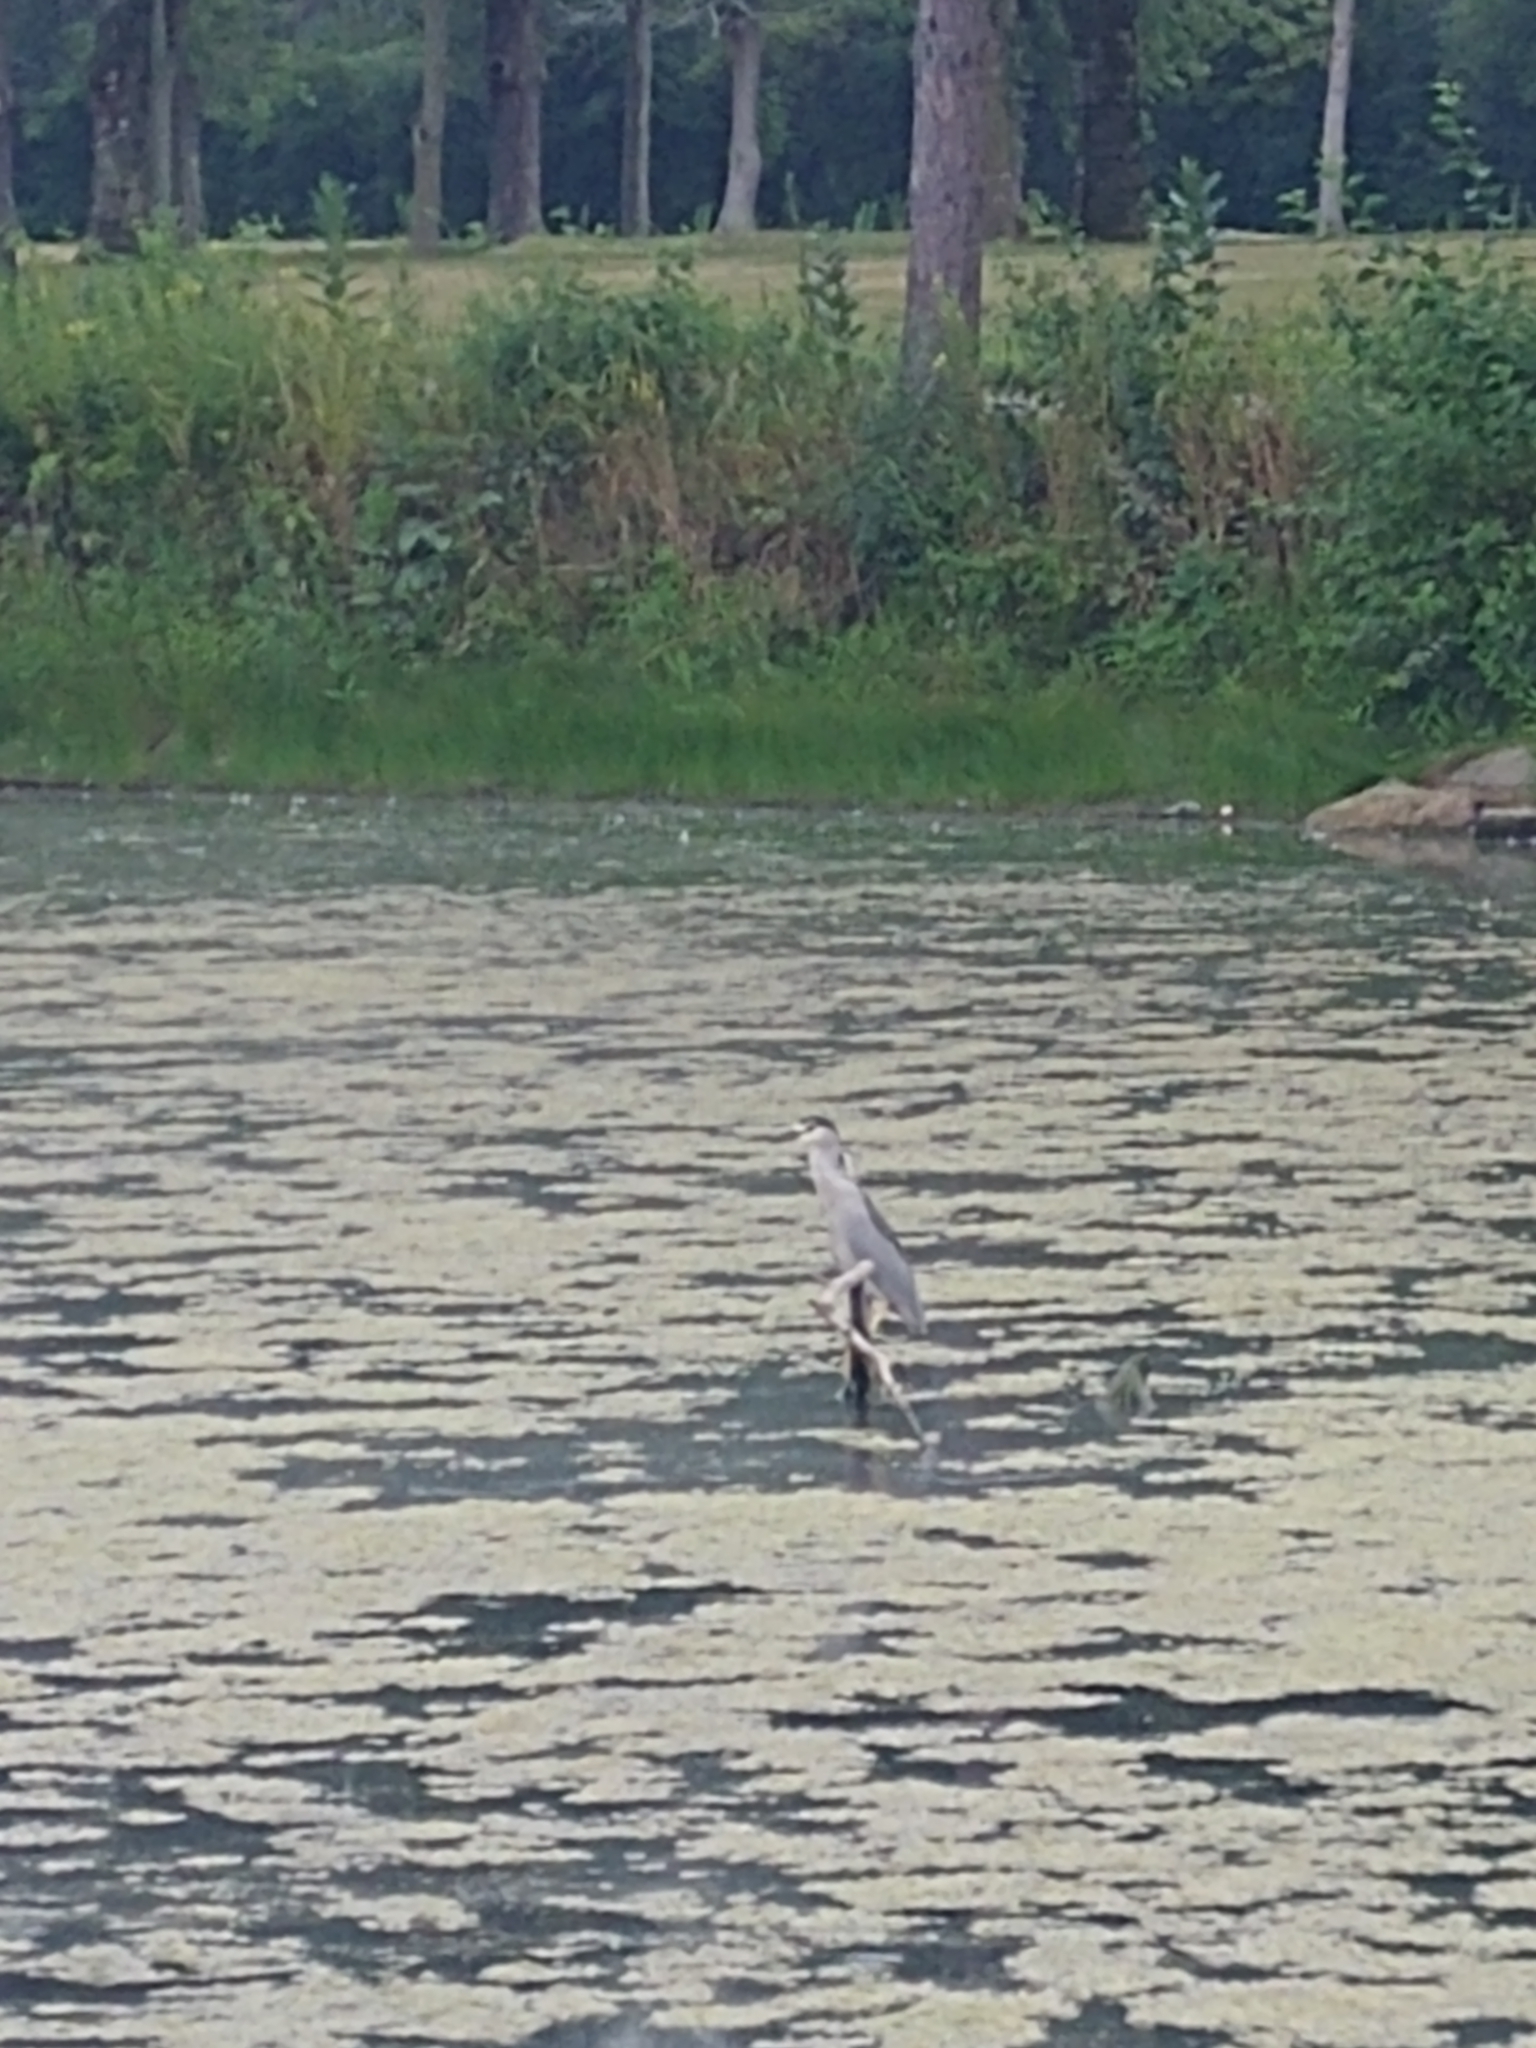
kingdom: Animalia
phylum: Chordata
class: Aves
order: Pelecaniformes
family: Ardeidae
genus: Nycticorax
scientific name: Nycticorax nycticorax
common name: Black-crowned night heron
